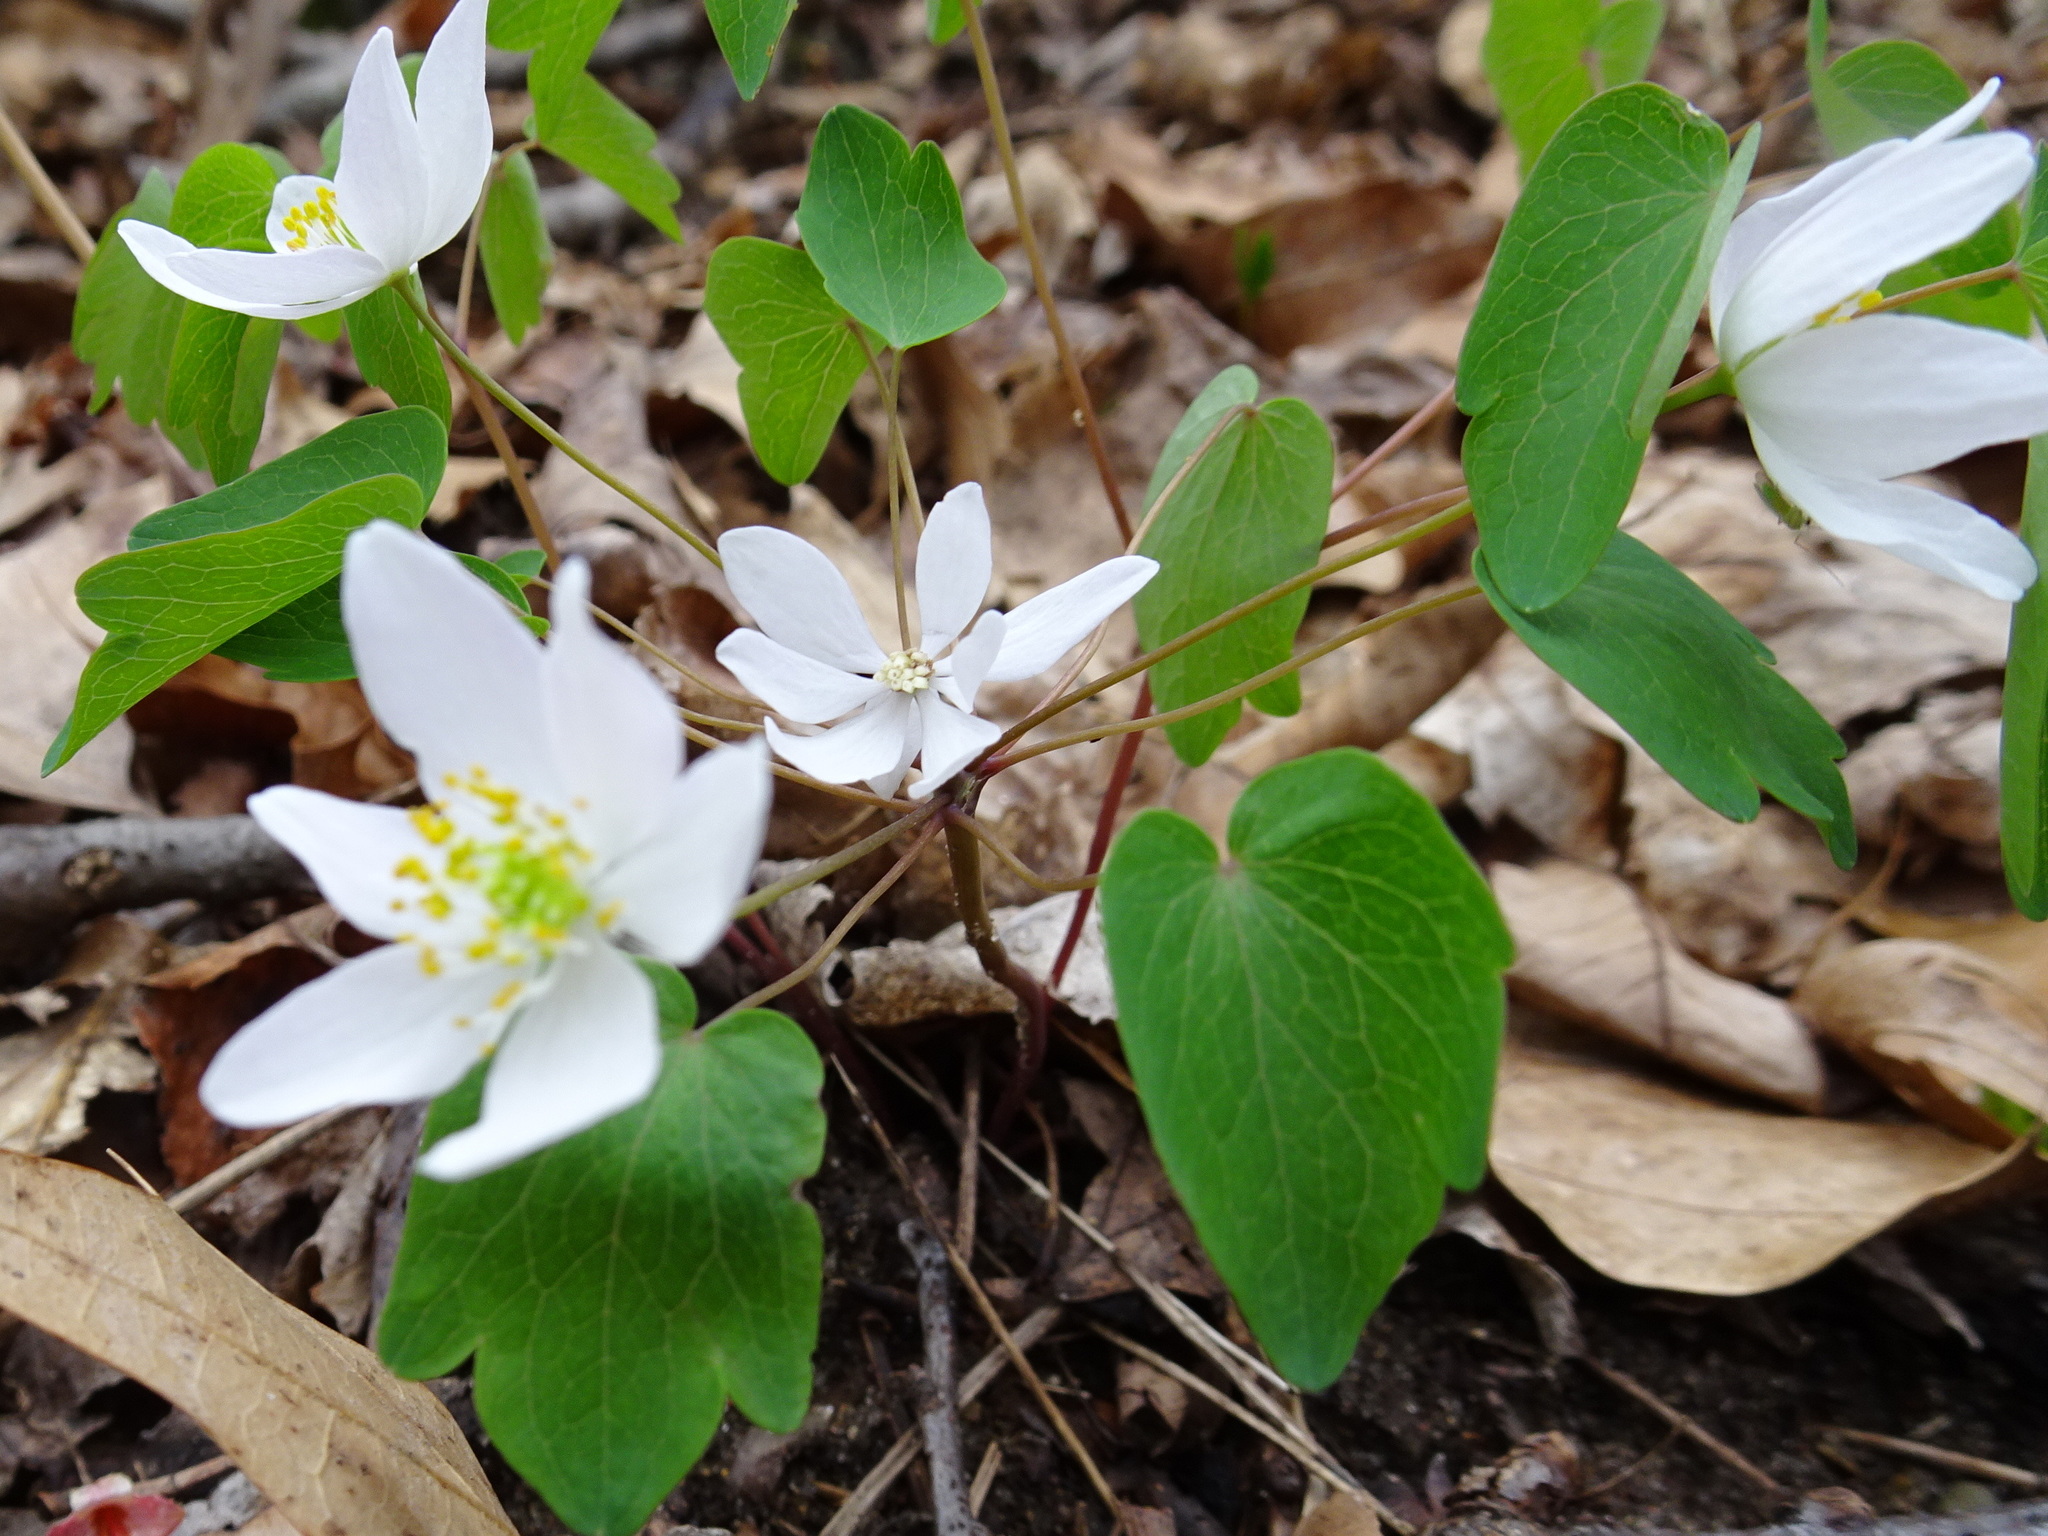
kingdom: Plantae
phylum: Tracheophyta
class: Magnoliopsida
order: Ranunculales
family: Ranunculaceae
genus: Thalictrum
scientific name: Thalictrum thalictroides
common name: Rue-anemone
